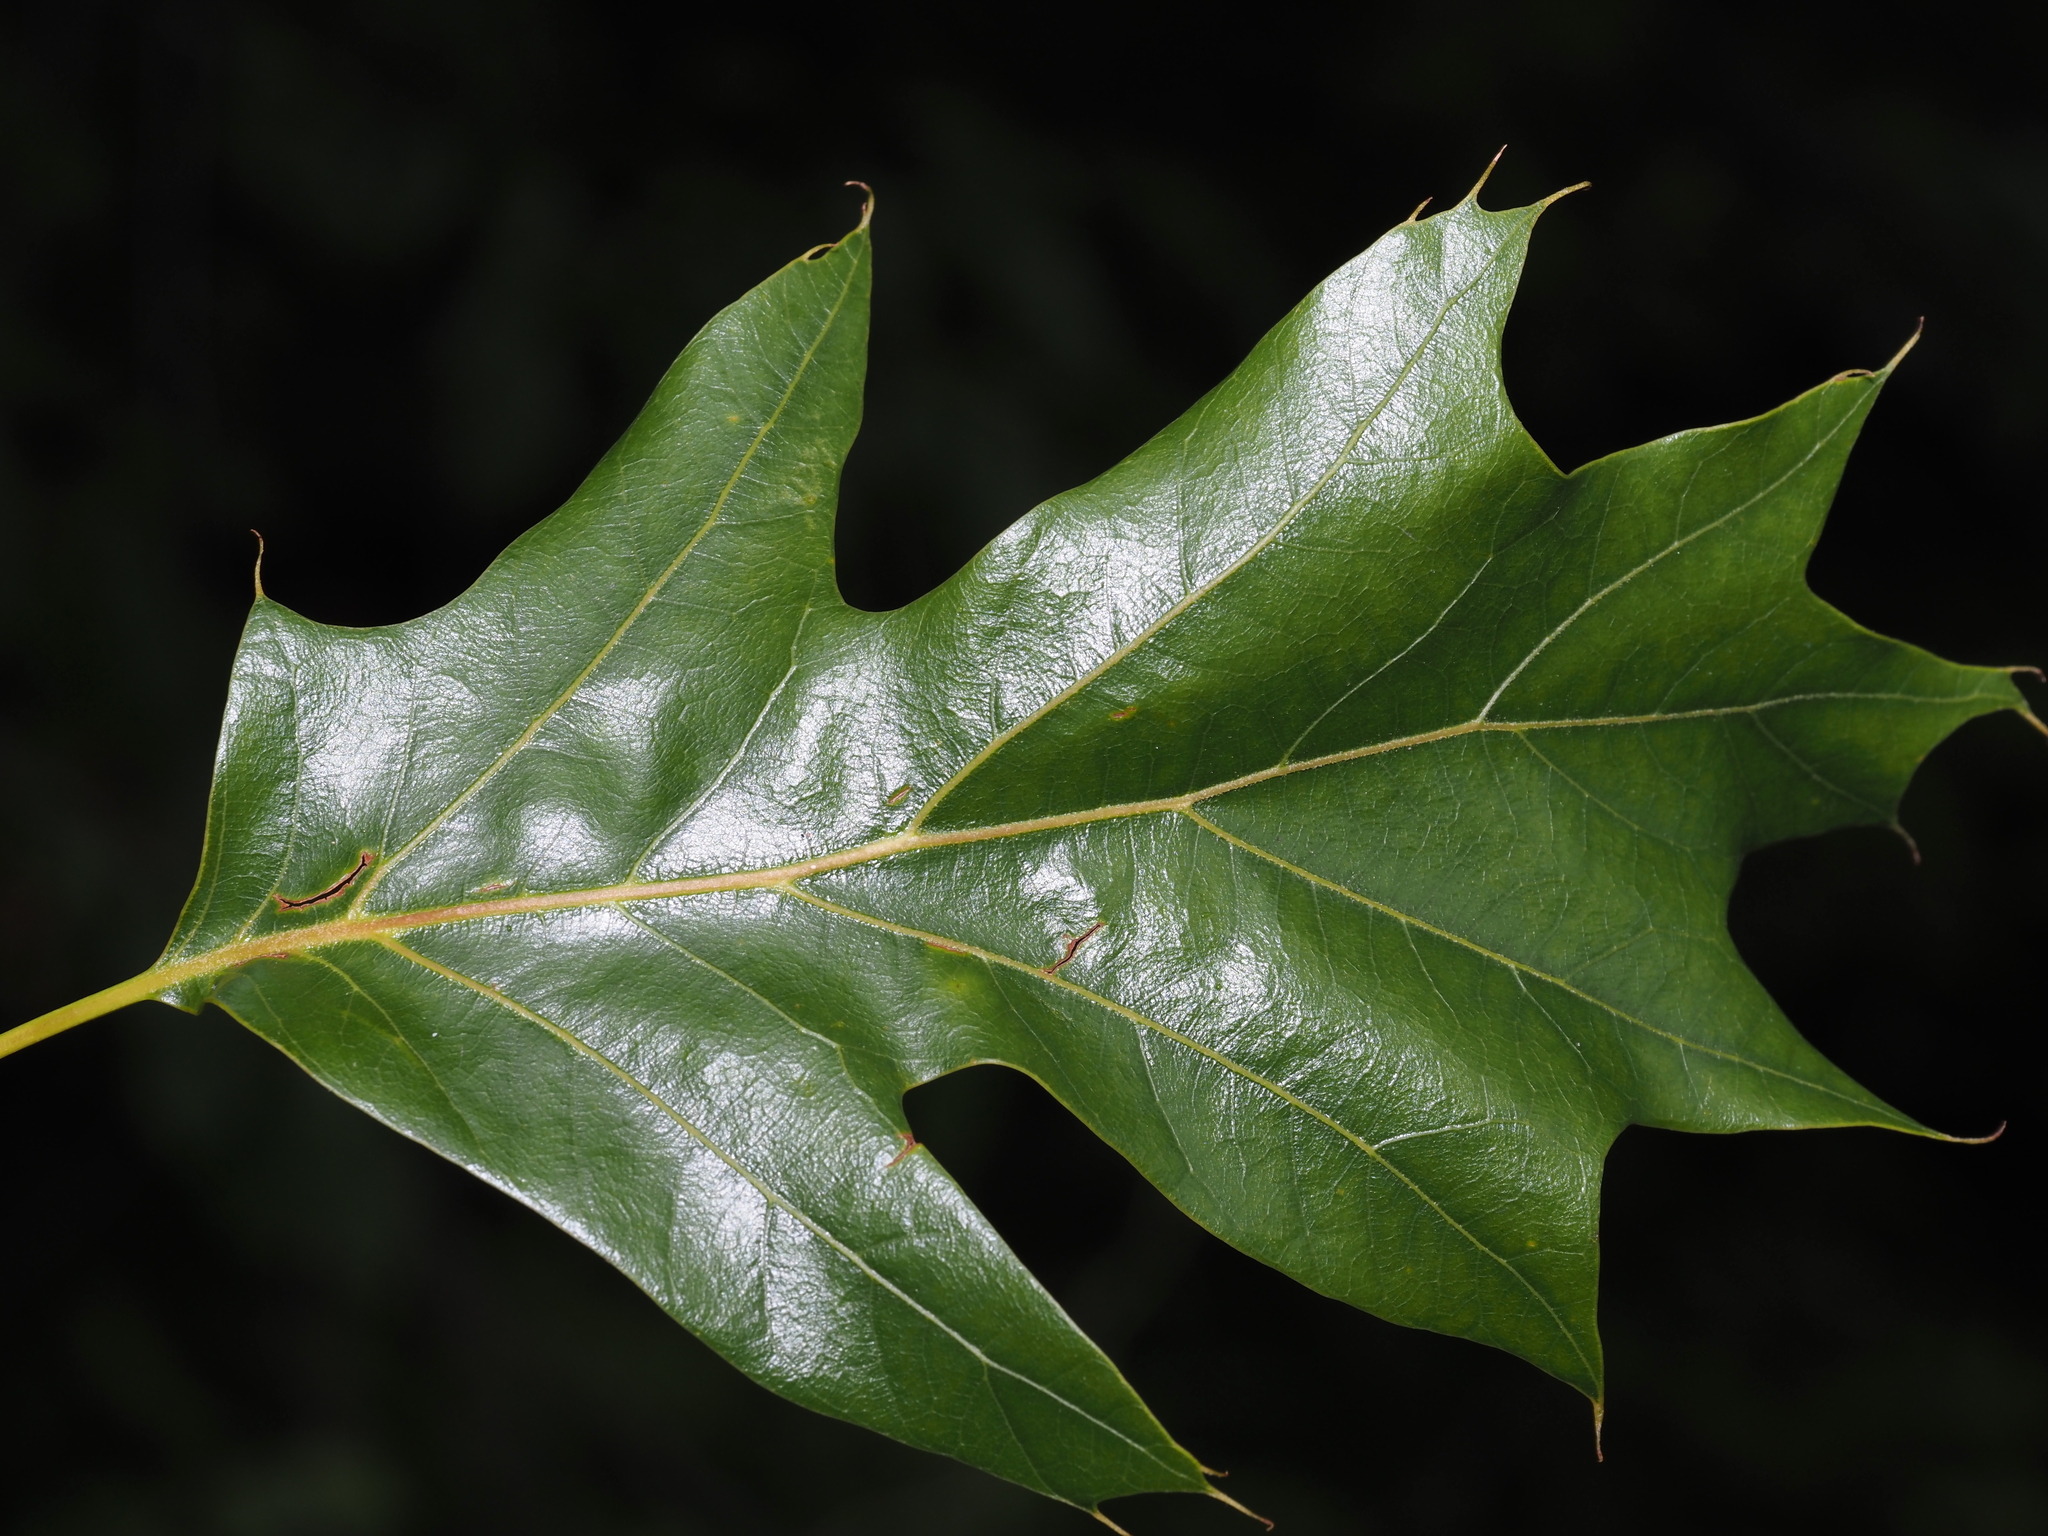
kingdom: Plantae
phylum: Tracheophyta
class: Magnoliopsida
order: Fagales
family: Fagaceae
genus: Quercus
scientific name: Quercus velutina
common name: Black oak
